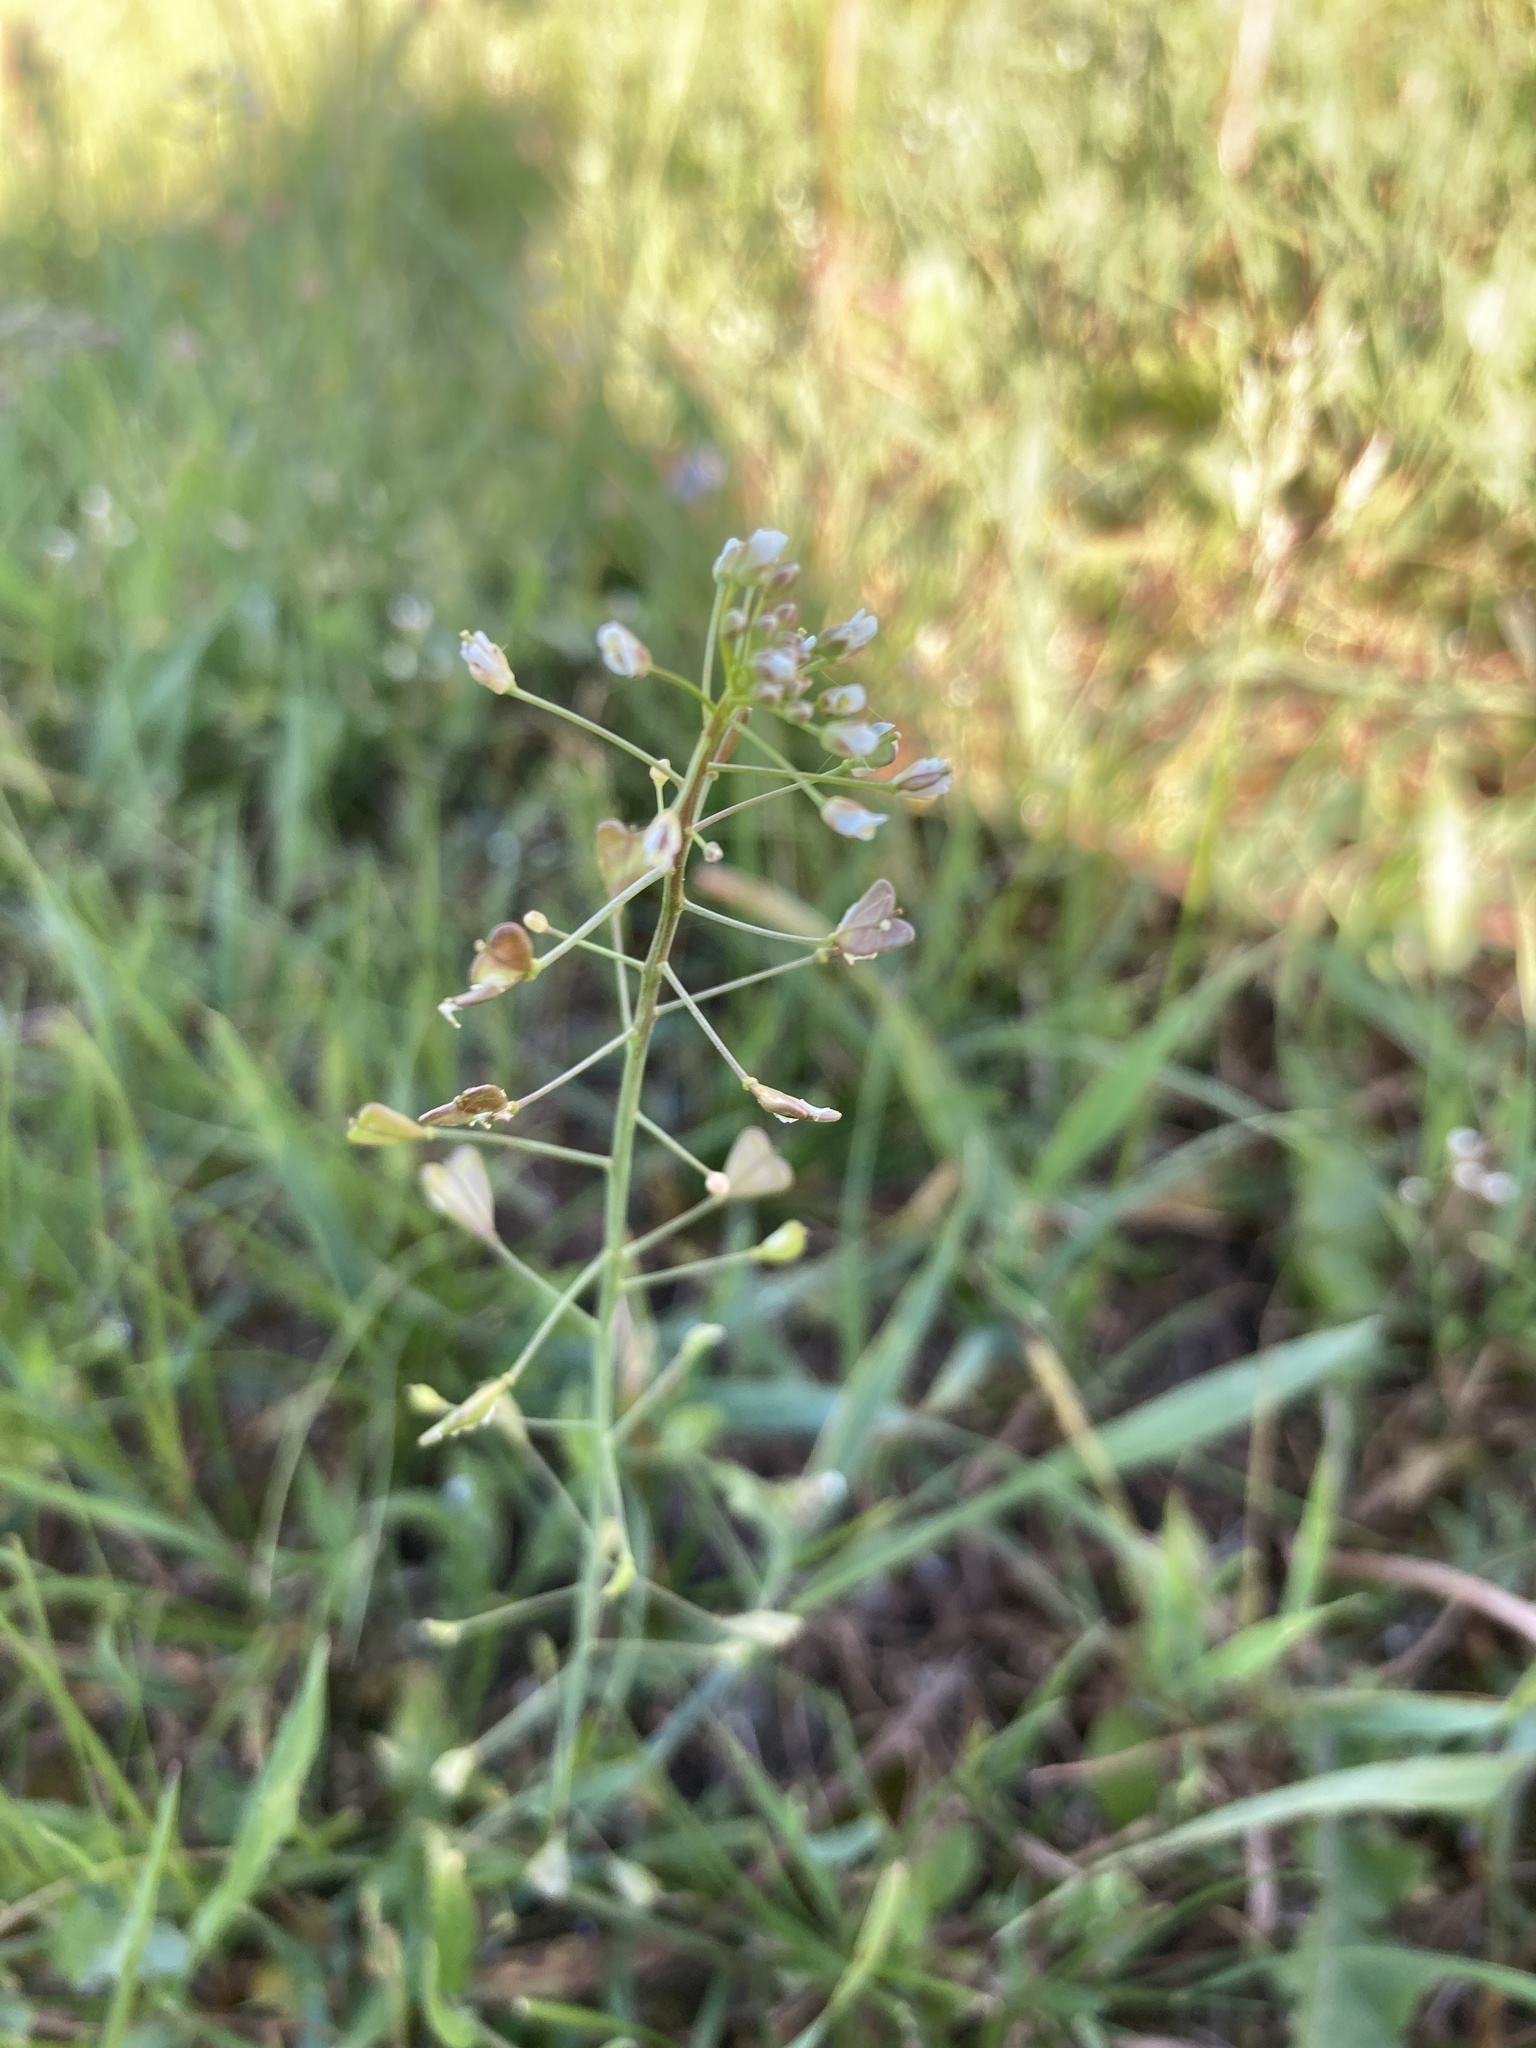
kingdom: Plantae
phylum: Tracheophyta
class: Magnoliopsida
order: Brassicales
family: Brassicaceae
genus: Capsella
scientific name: Capsella bursa-pastoris
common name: Shepherd's purse
